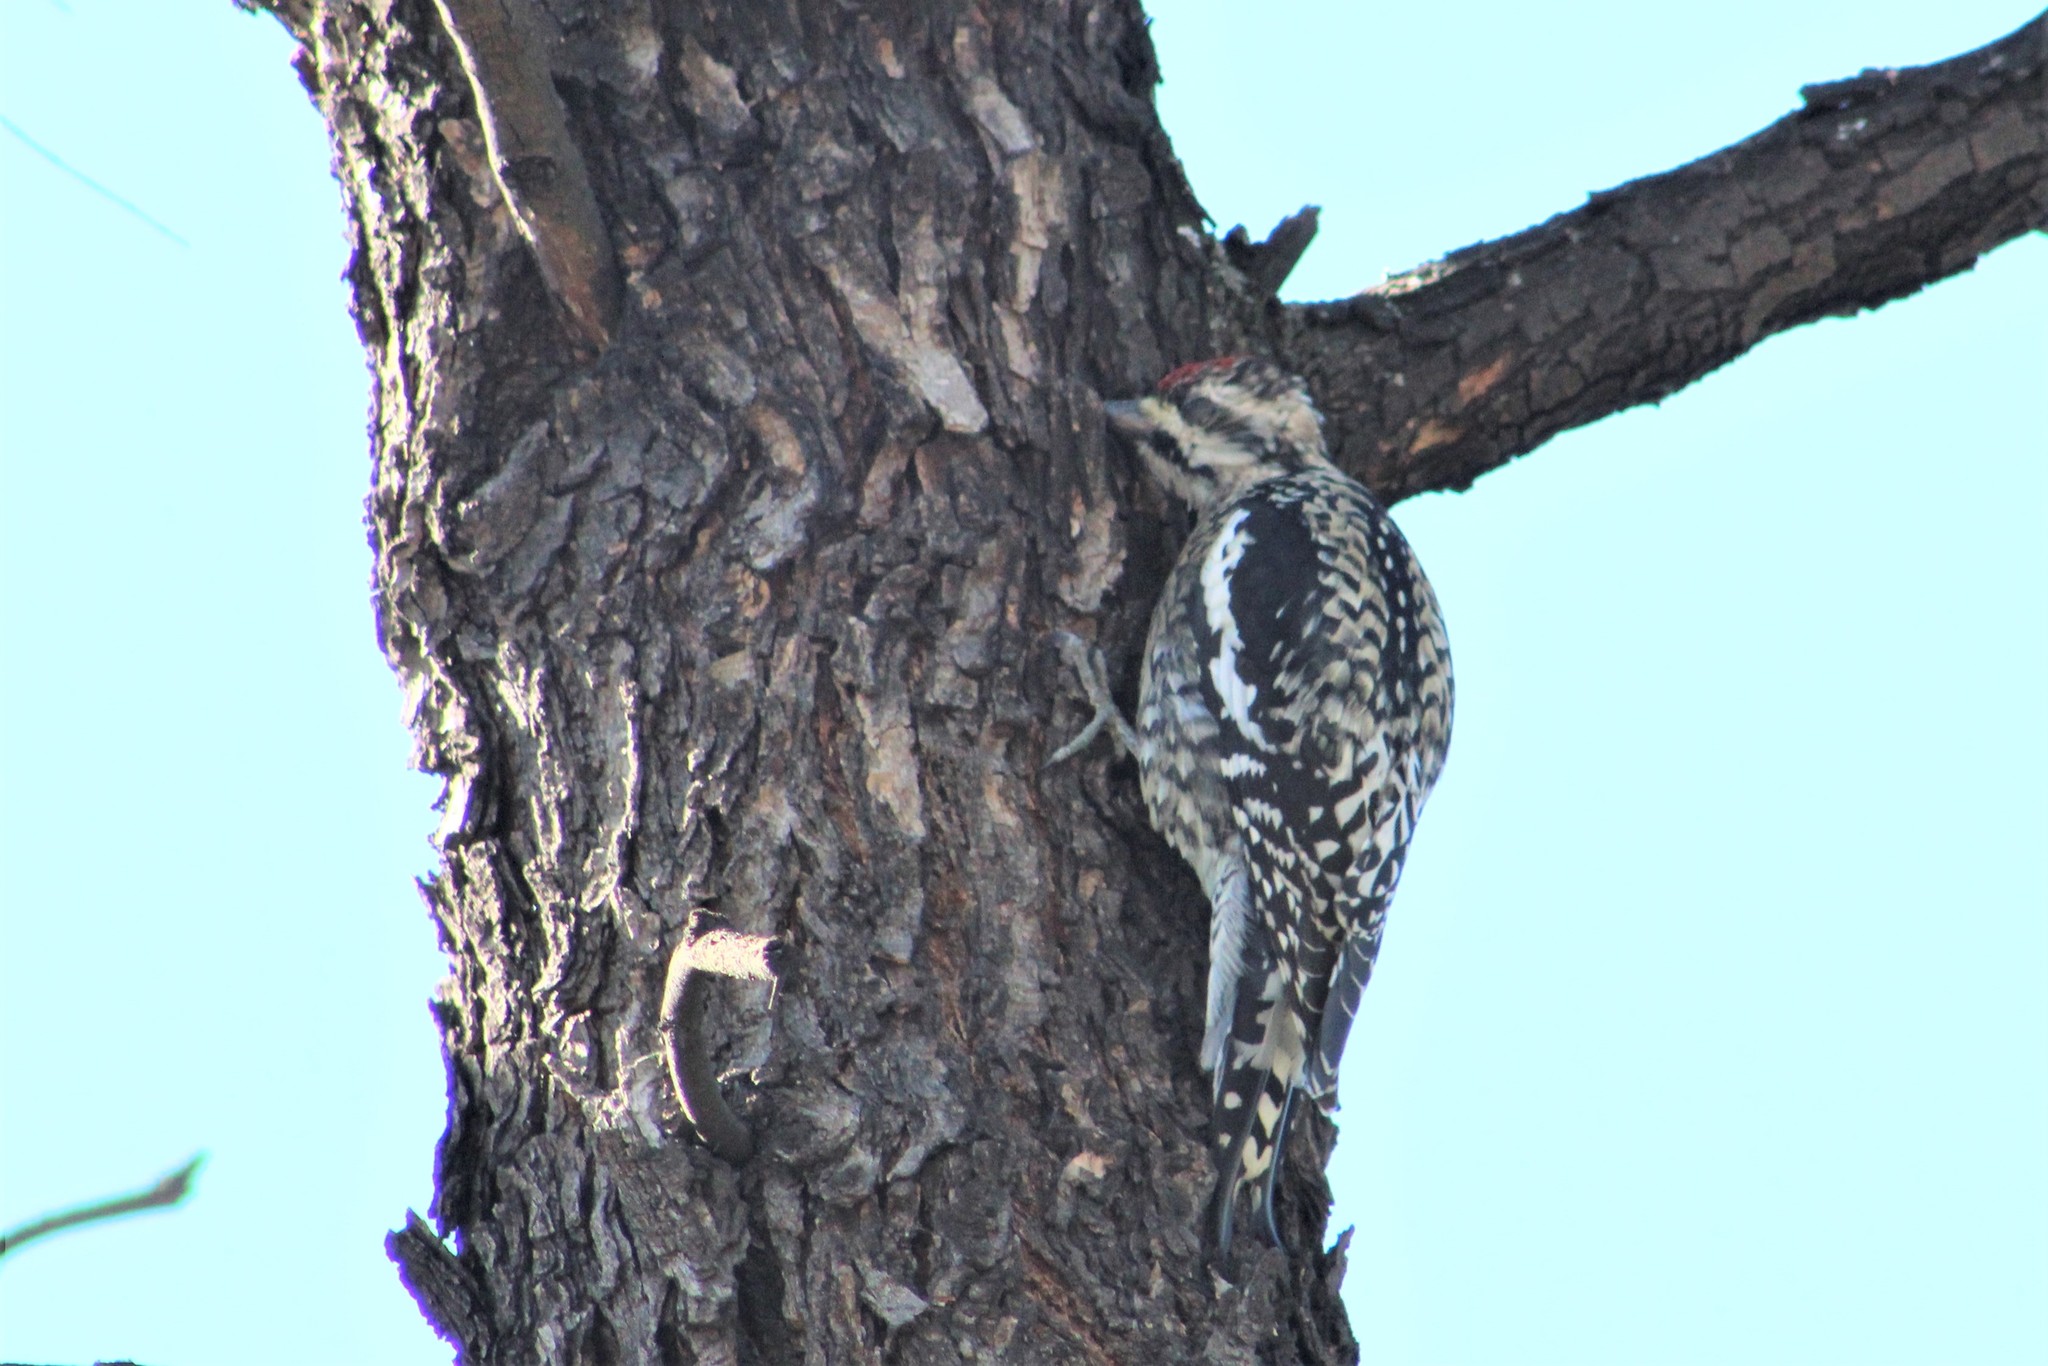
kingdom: Animalia
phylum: Chordata
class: Aves
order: Piciformes
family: Picidae
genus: Sphyrapicus
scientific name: Sphyrapicus varius
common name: Yellow-bellied sapsucker
